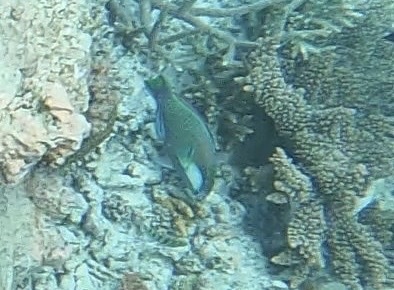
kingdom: Animalia
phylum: Chordata
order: Perciformes
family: Scaridae
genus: Chlorurus
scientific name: Chlorurus bleekeri
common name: Bleeker's parrotfish
